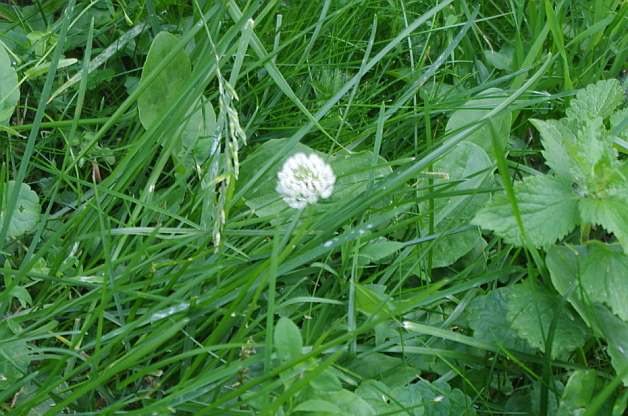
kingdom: Plantae
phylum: Tracheophyta
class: Magnoliopsida
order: Fabales
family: Fabaceae
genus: Trifolium
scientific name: Trifolium repens
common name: White clover
